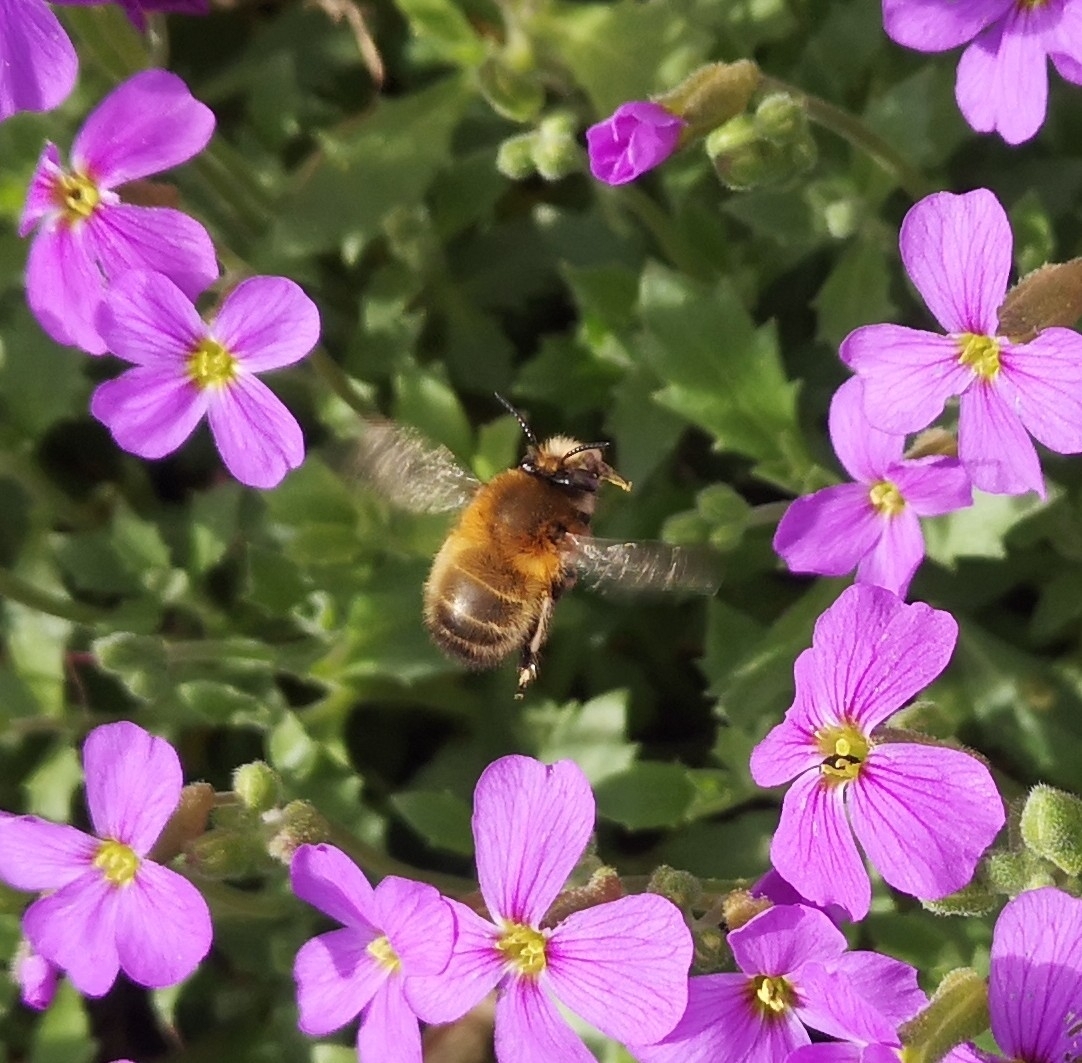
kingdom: Animalia
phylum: Arthropoda
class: Insecta
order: Hymenoptera
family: Apidae
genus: Anthophora
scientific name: Anthophora plumipes
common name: Hairy-footed flower bee
